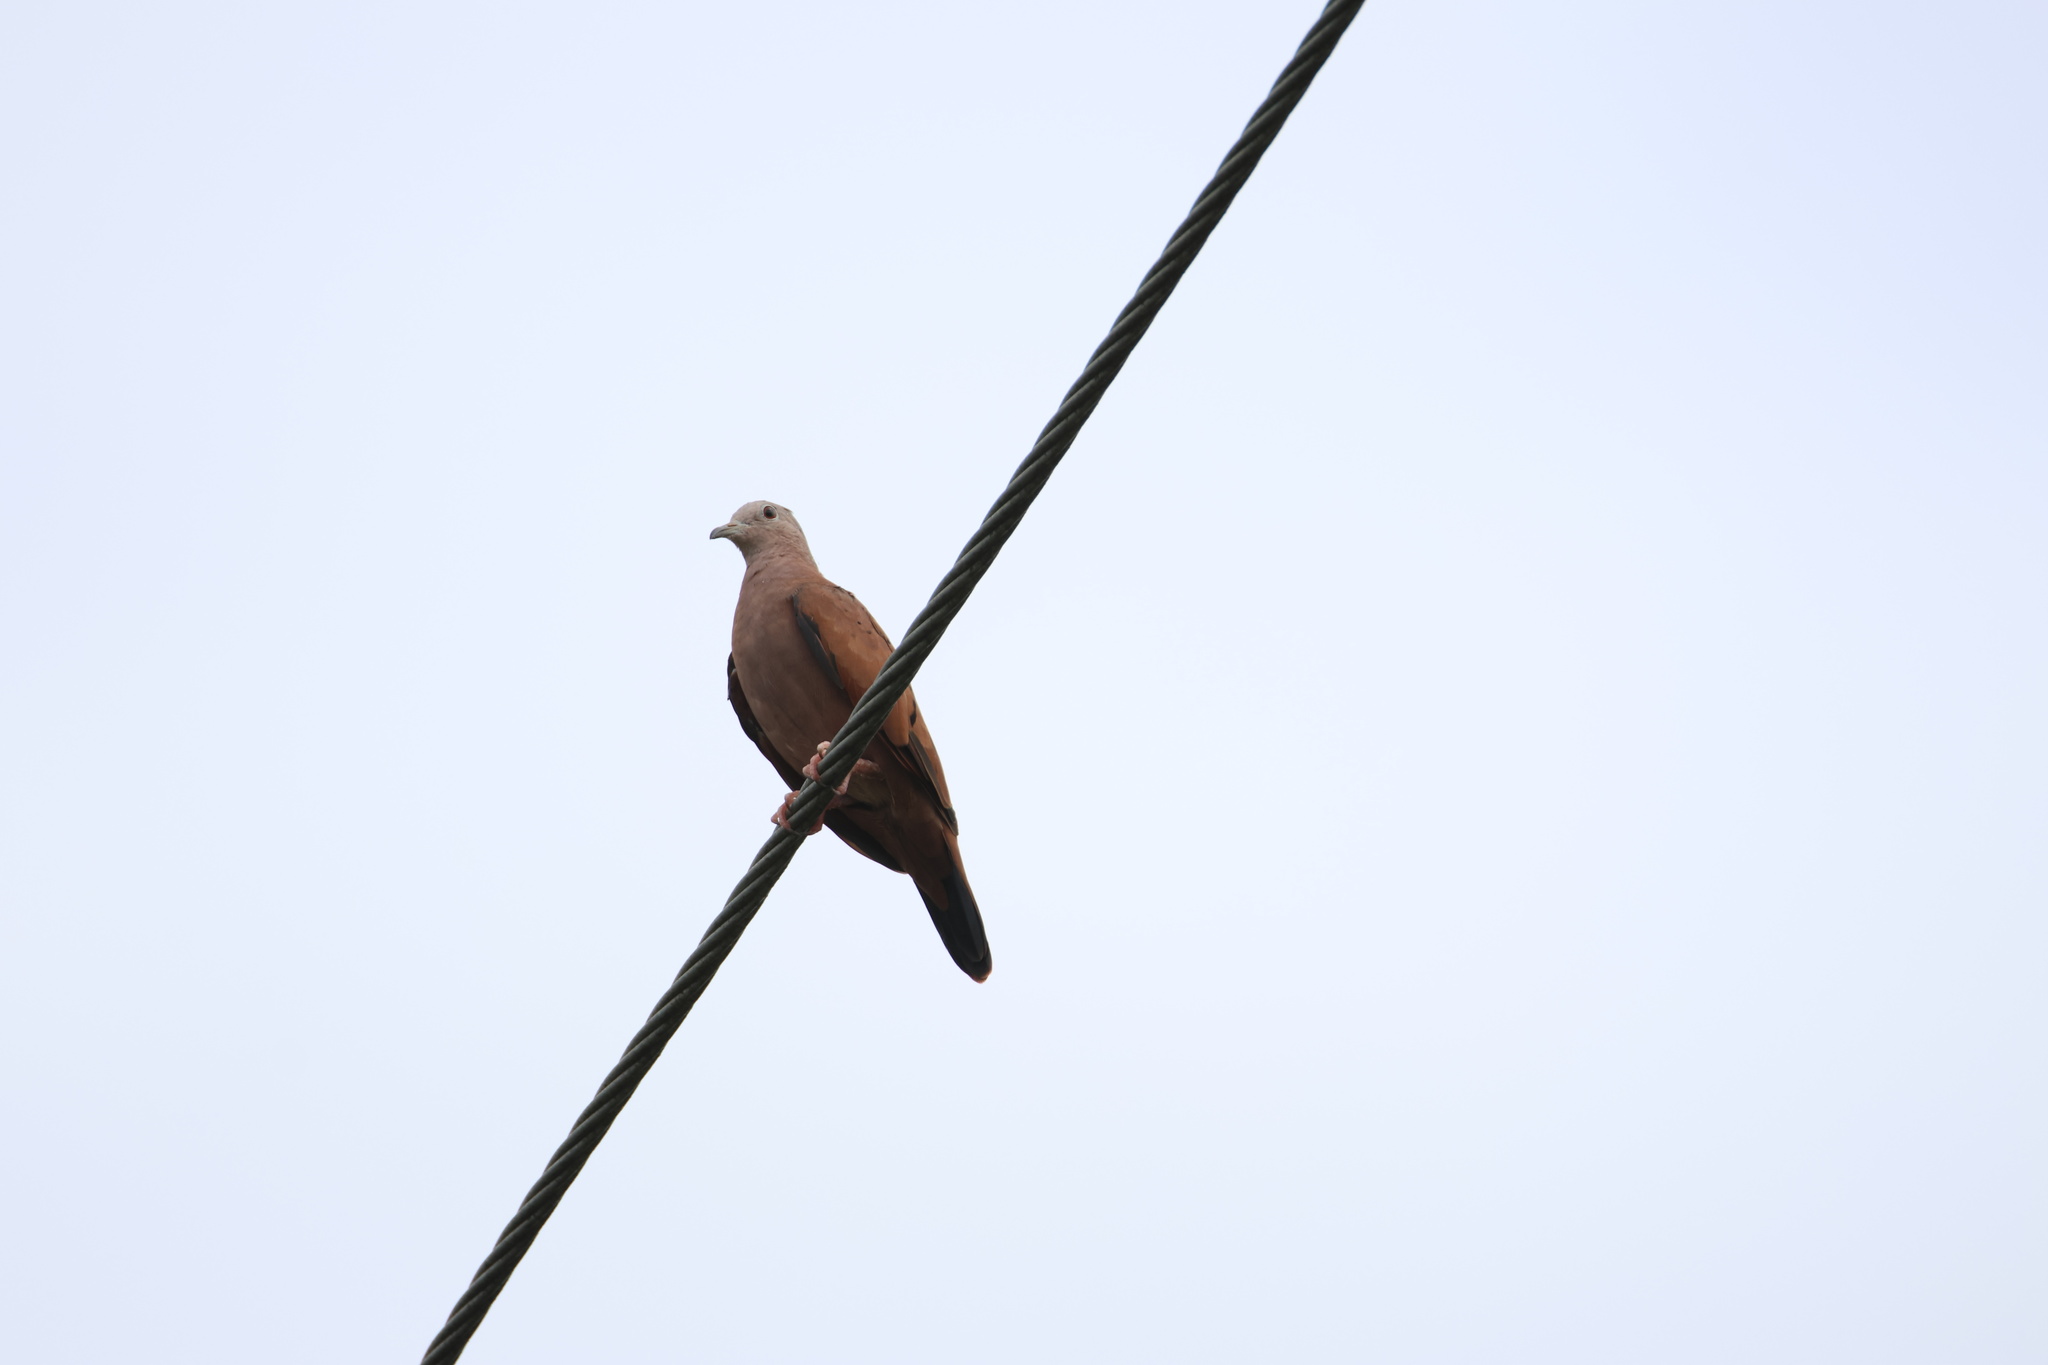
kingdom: Animalia
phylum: Chordata
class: Aves
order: Columbiformes
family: Columbidae
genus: Columbina
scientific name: Columbina talpacoti
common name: Ruddy ground dove
